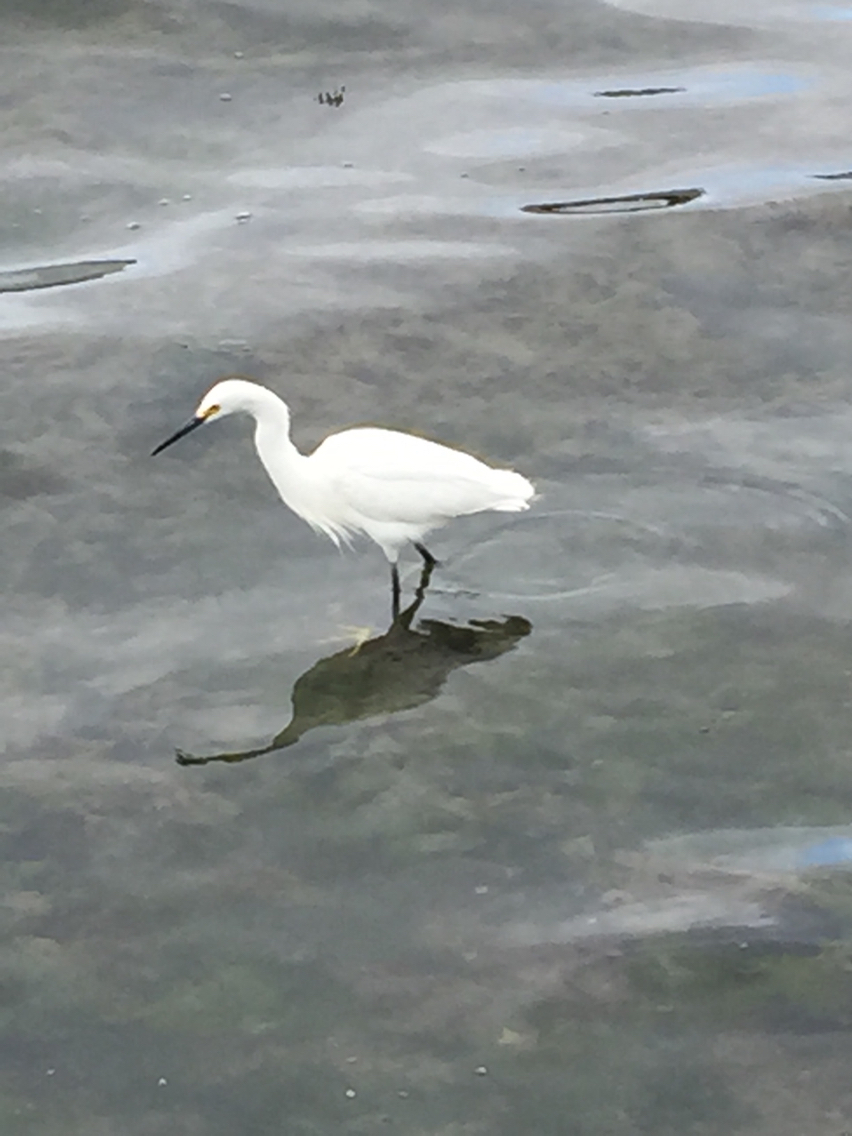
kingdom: Animalia
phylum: Chordata
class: Aves
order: Pelecaniformes
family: Ardeidae
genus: Egretta
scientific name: Egretta thula
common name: Snowy egret
